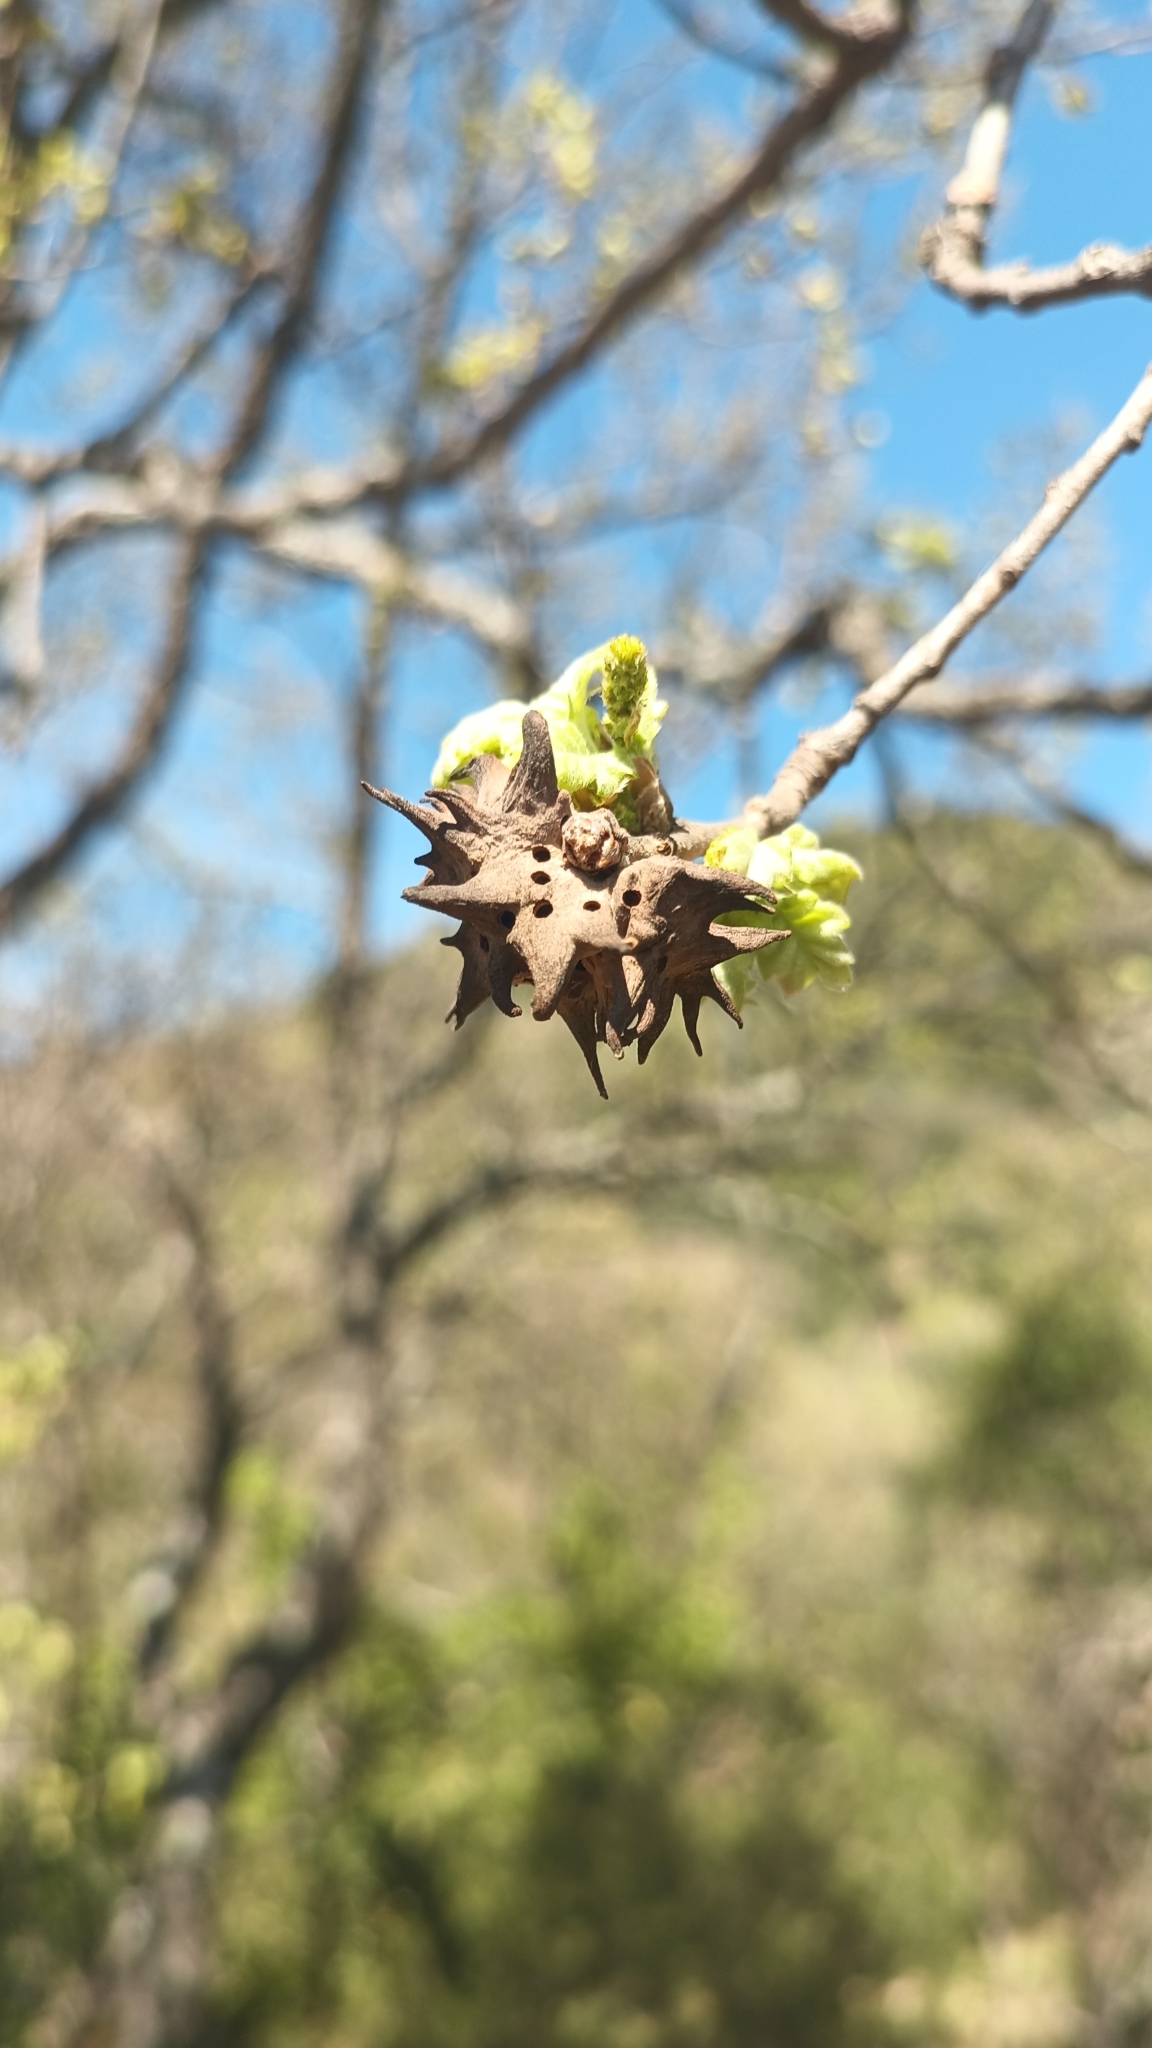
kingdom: Animalia
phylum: Arthropoda
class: Insecta
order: Hymenoptera
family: Cynipidae
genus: Andricus
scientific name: Andricus coriarius
